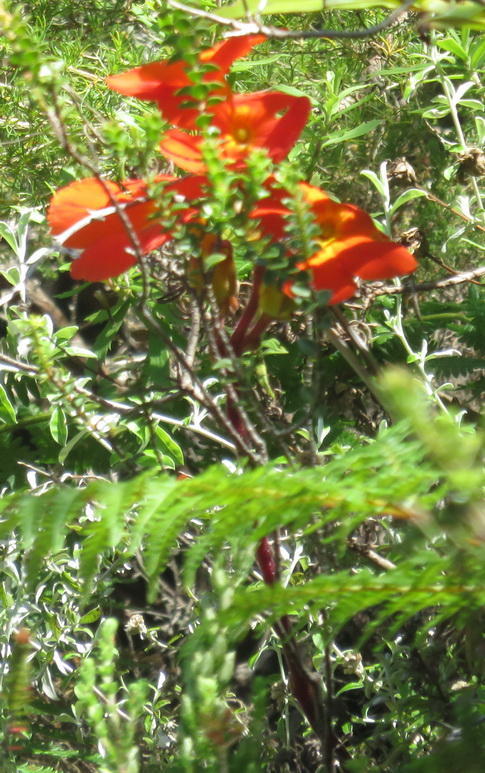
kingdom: Plantae
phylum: Tracheophyta
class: Magnoliopsida
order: Lamiales
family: Orobanchaceae
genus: Harveya
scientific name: Harveya stenosiphon
